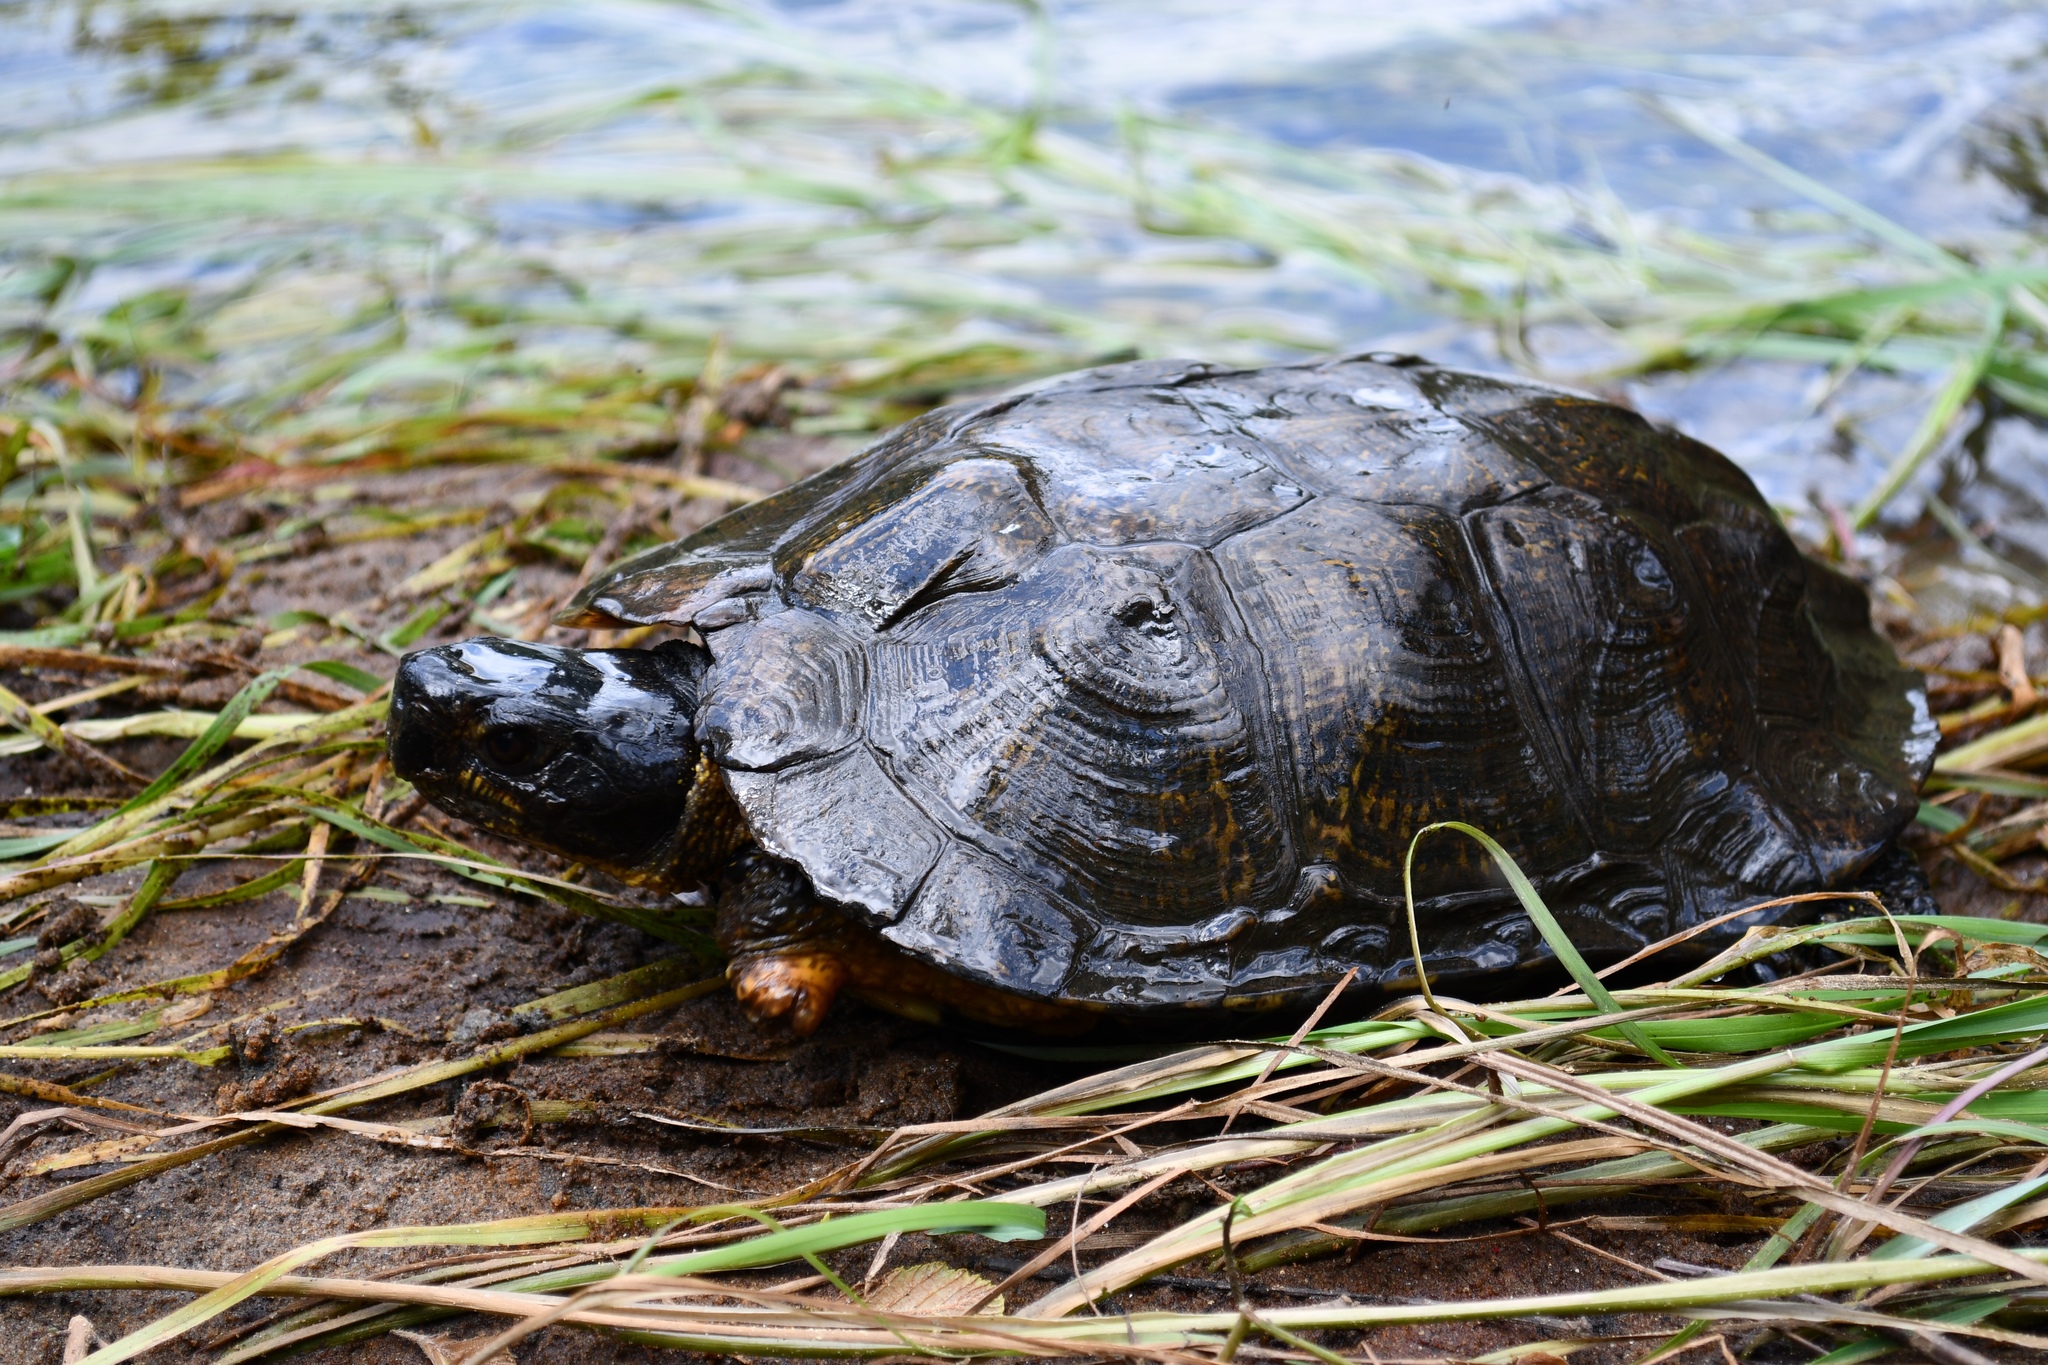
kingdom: Animalia
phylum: Chordata
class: Testudines
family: Emydidae
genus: Glyptemys
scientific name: Glyptemys insculpta
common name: Wood turtle
